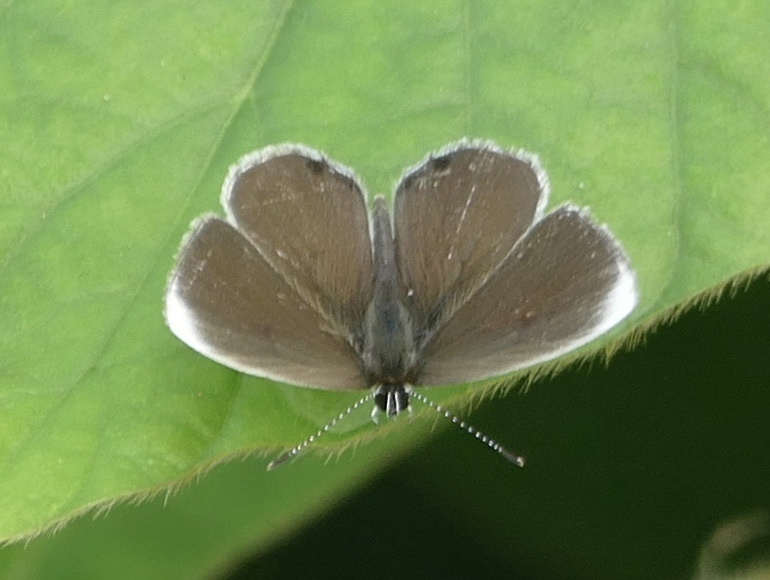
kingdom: Animalia
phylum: Arthropoda
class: Insecta
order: Lepidoptera
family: Lycaenidae
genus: Eicochrysops
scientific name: Eicochrysops hippocrates
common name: White-tipped blue
